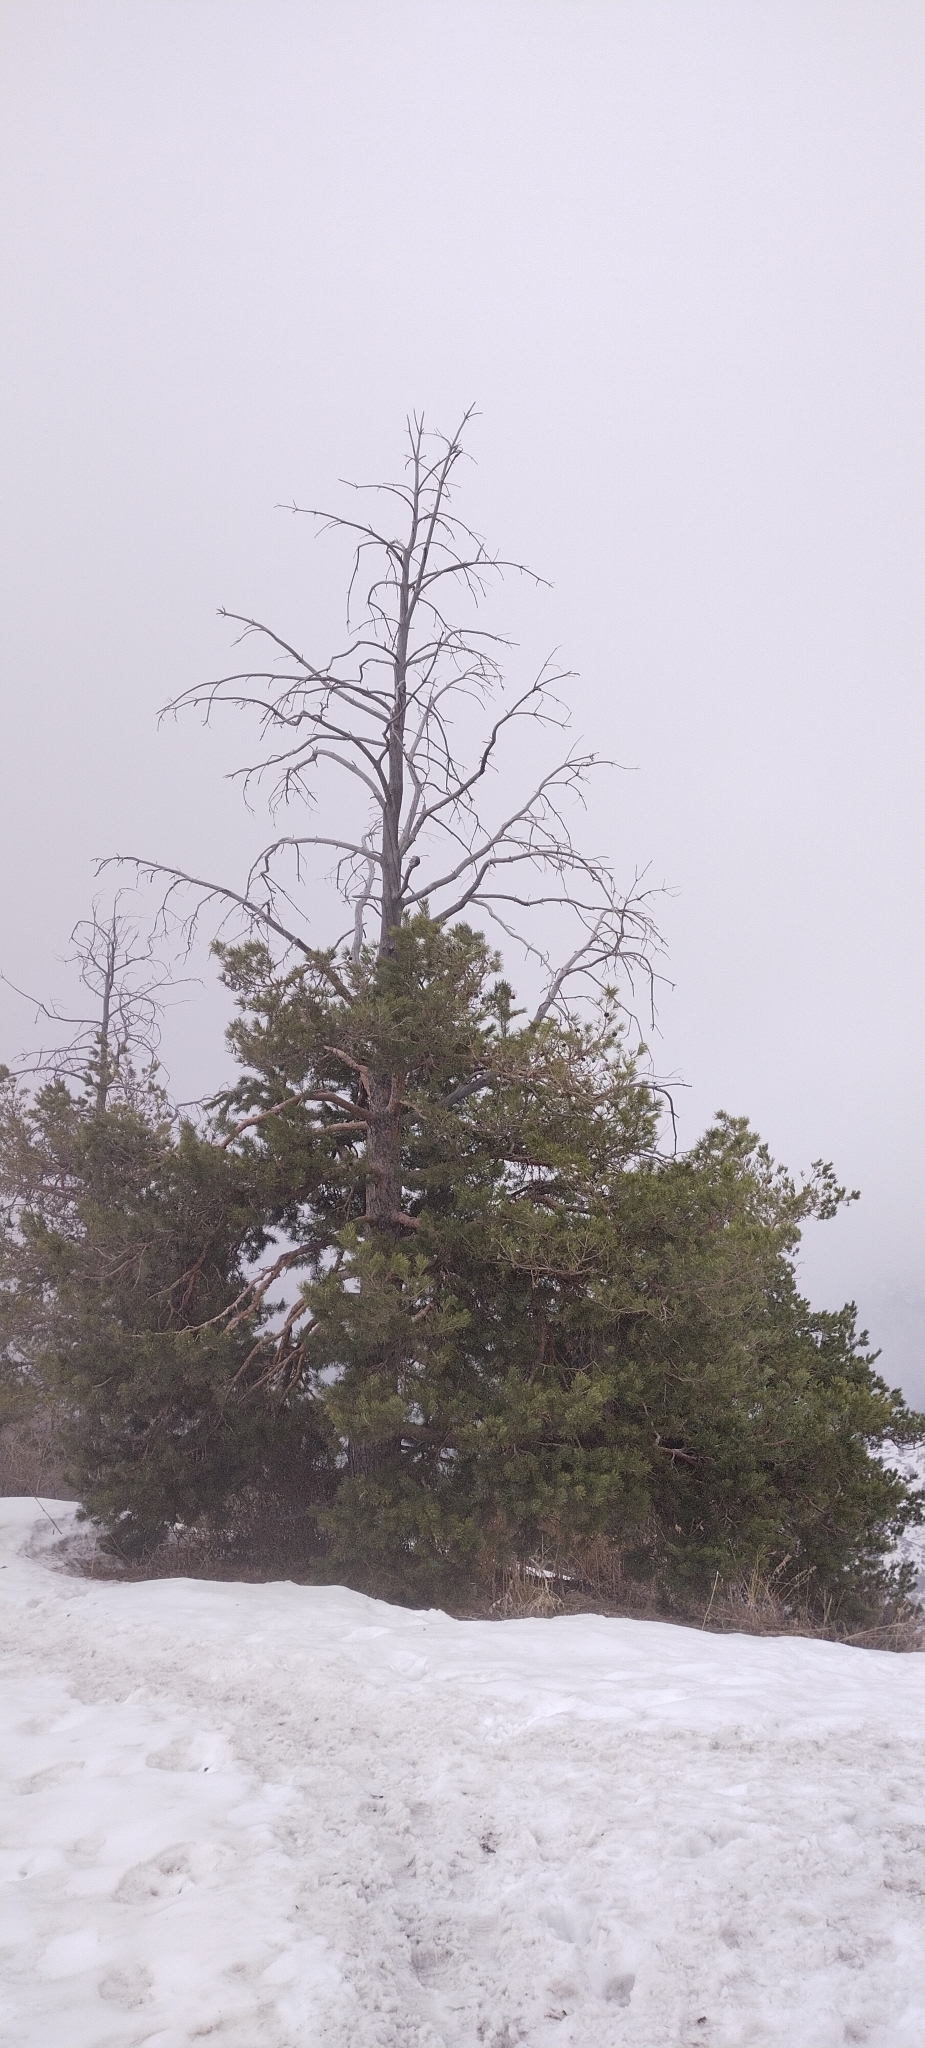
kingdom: Plantae
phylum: Tracheophyta
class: Pinopsida
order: Pinales
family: Pinaceae
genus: Pinus
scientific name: Pinus sylvestris
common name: Scots pine
